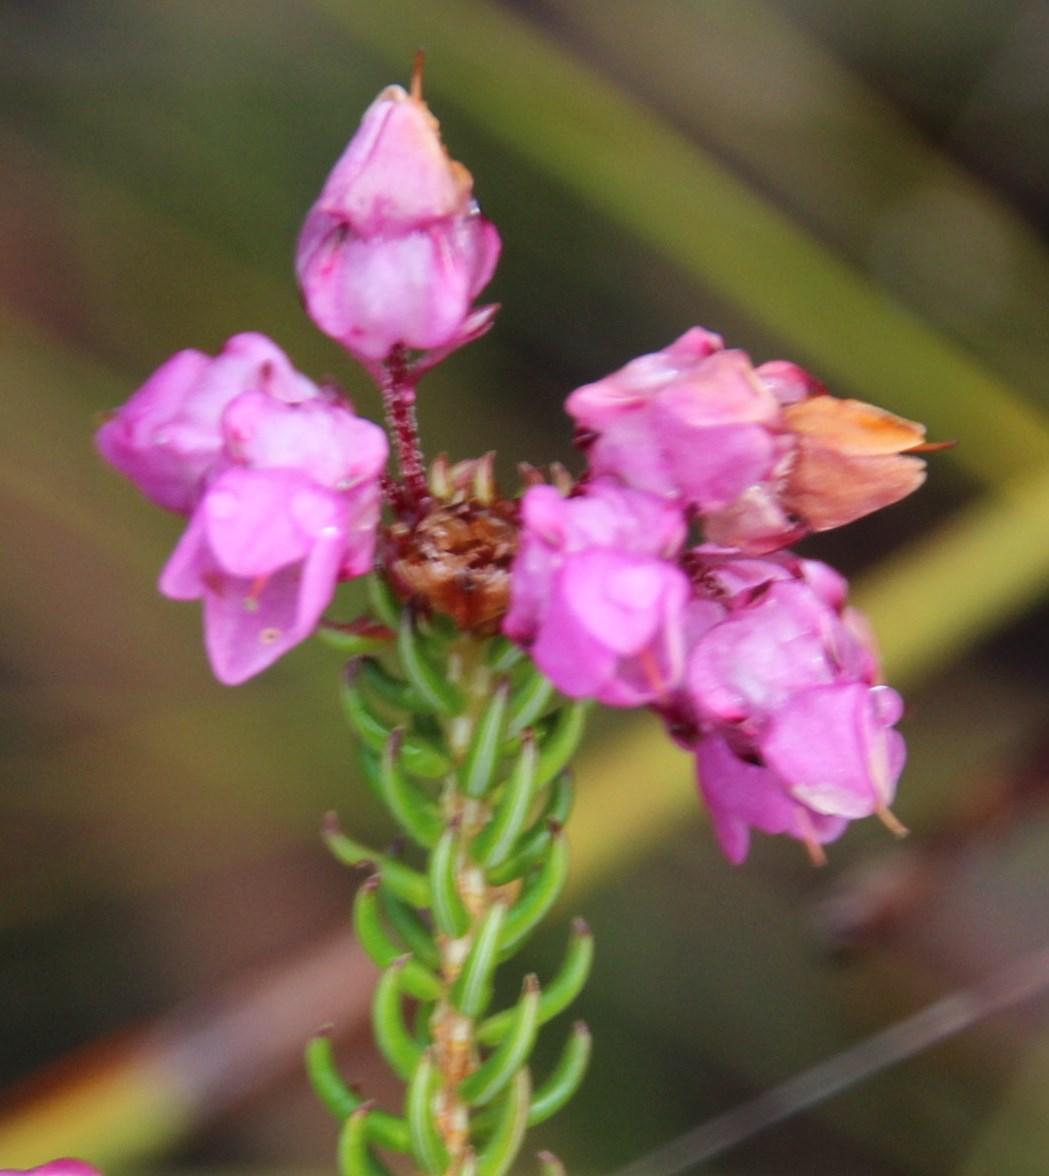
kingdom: Plantae
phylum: Tracheophyta
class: Magnoliopsida
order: Ericales
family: Ericaceae
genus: Erica
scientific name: Erica cubica
